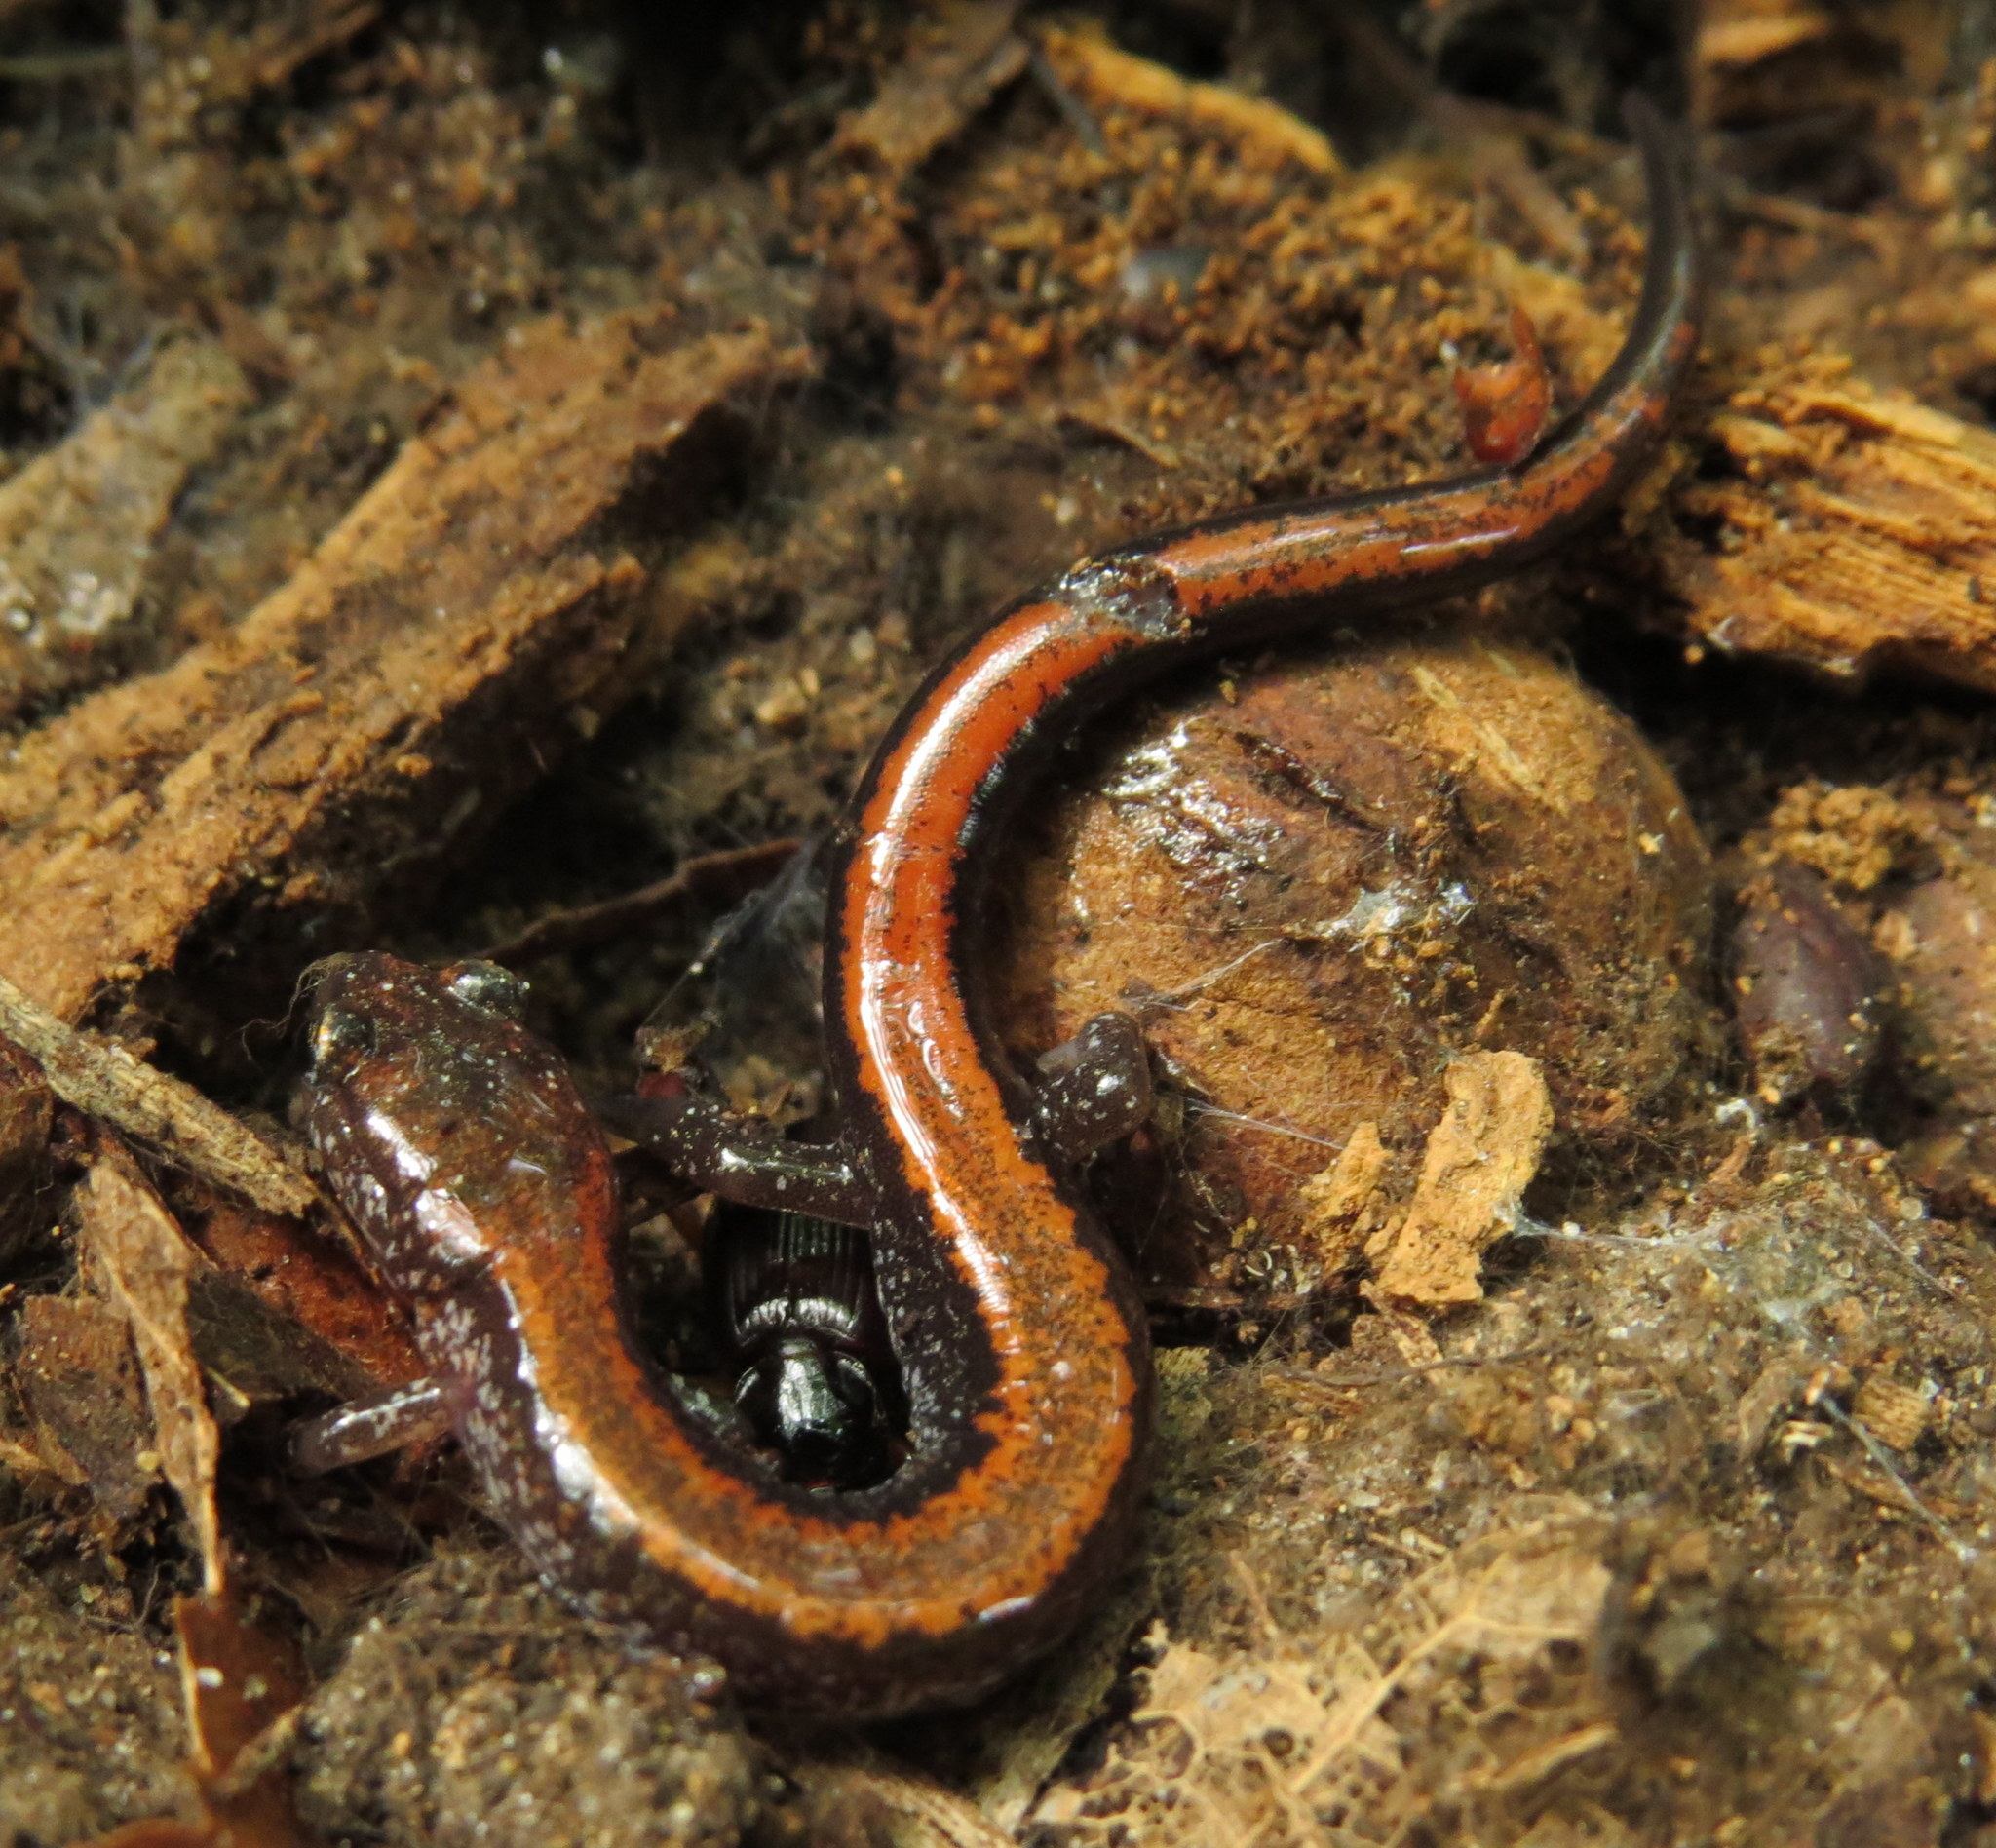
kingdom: Animalia
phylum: Chordata
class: Amphibia
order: Caudata
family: Plethodontidae
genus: Plethodon
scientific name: Plethodon cinereus
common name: Redback salamander
